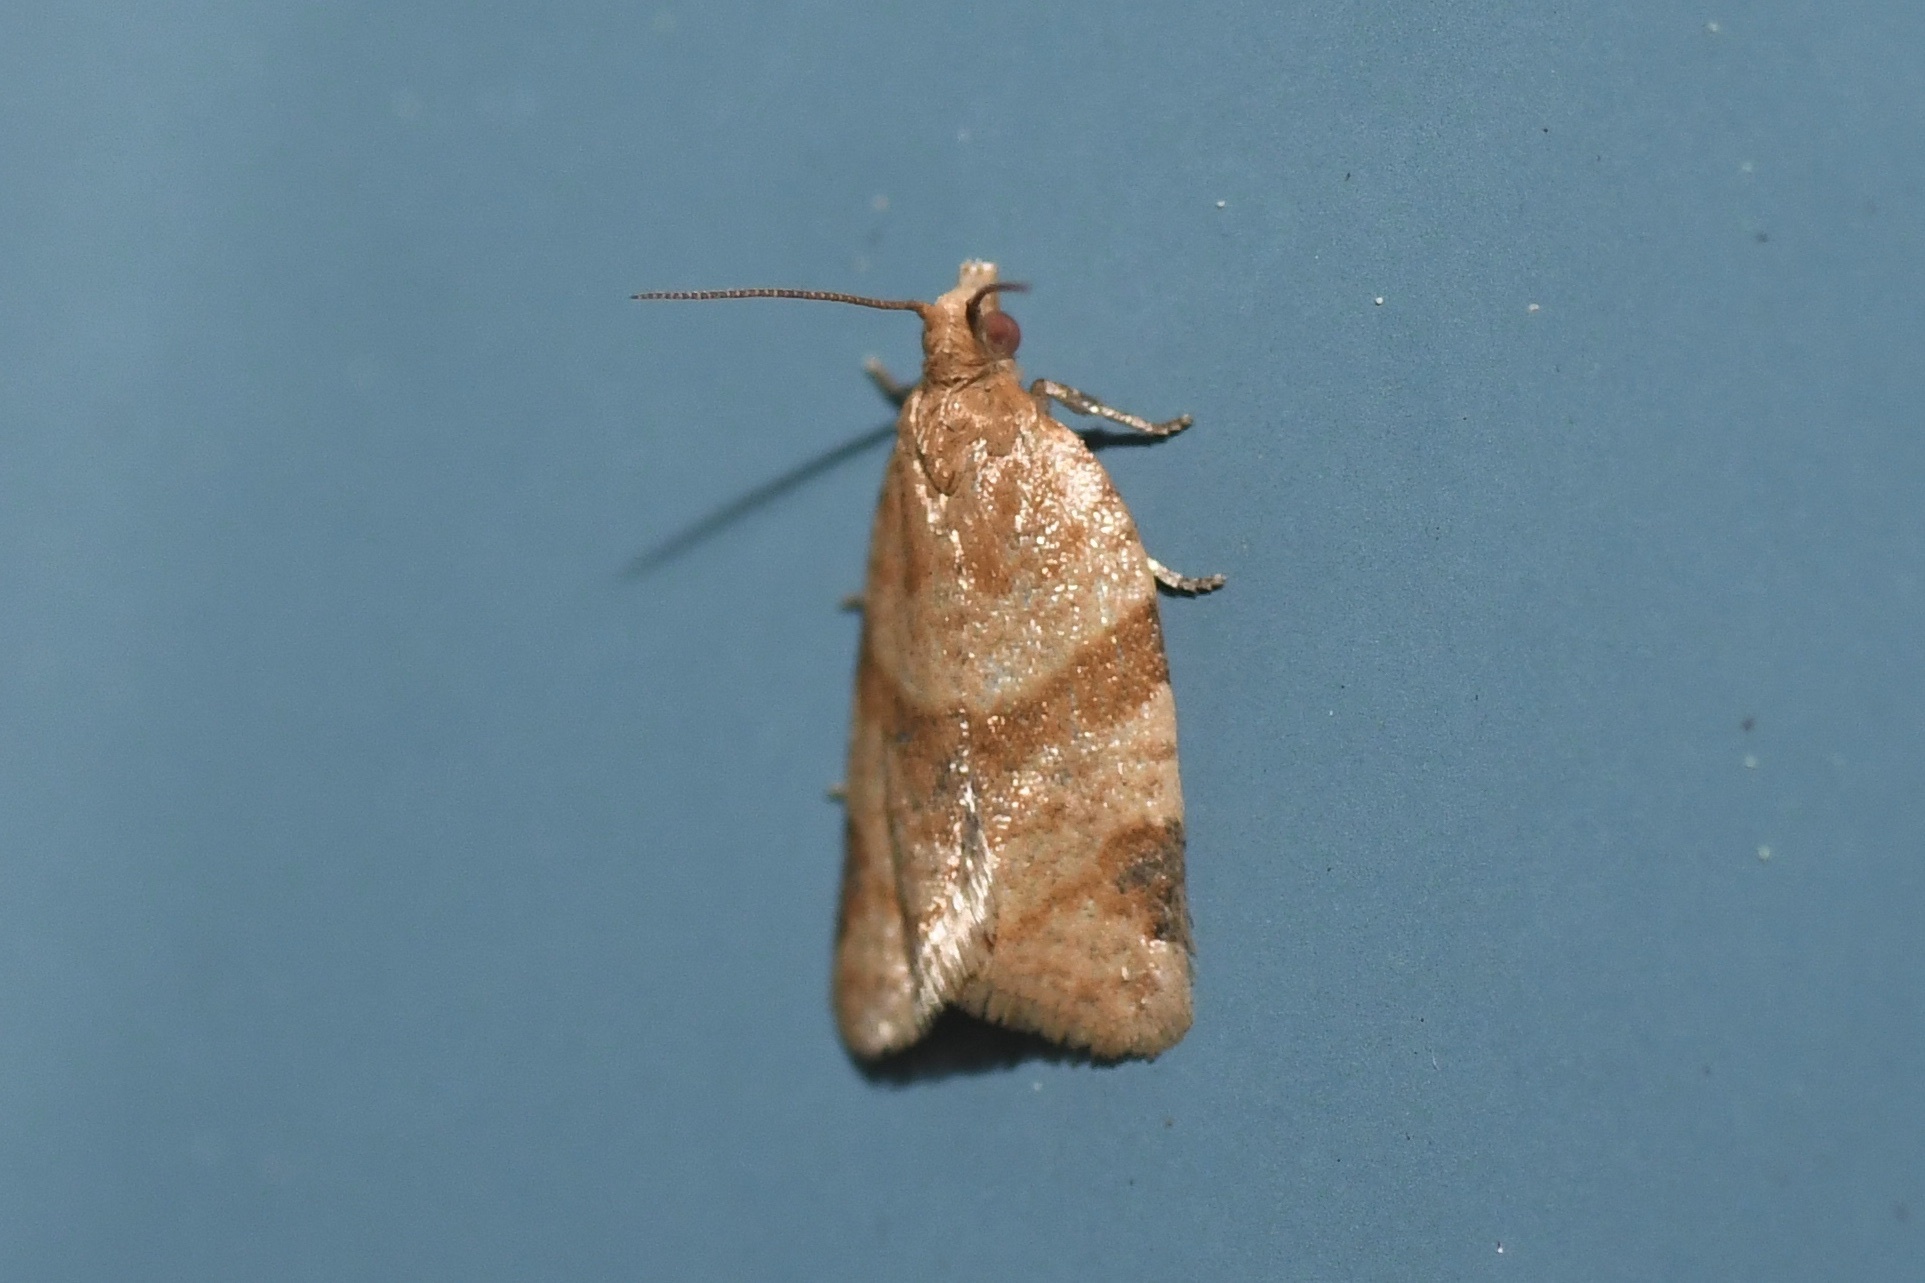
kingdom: Animalia
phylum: Arthropoda
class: Insecta
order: Lepidoptera
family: Tortricidae
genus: Clepsis
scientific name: Clepsis peritana
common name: Garden tortrix
